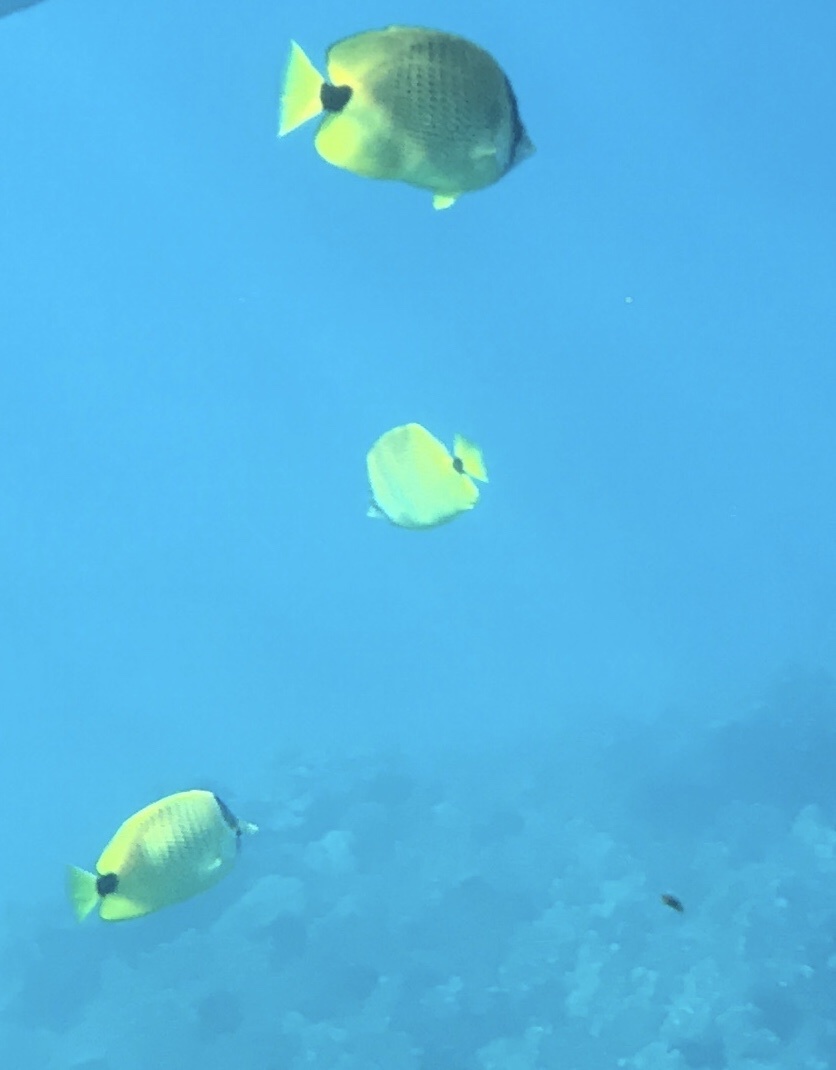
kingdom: Animalia
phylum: Chordata
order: Perciformes
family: Chaetodontidae
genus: Chaetodon
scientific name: Chaetodon miliaris
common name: Lemon butterflyfish
